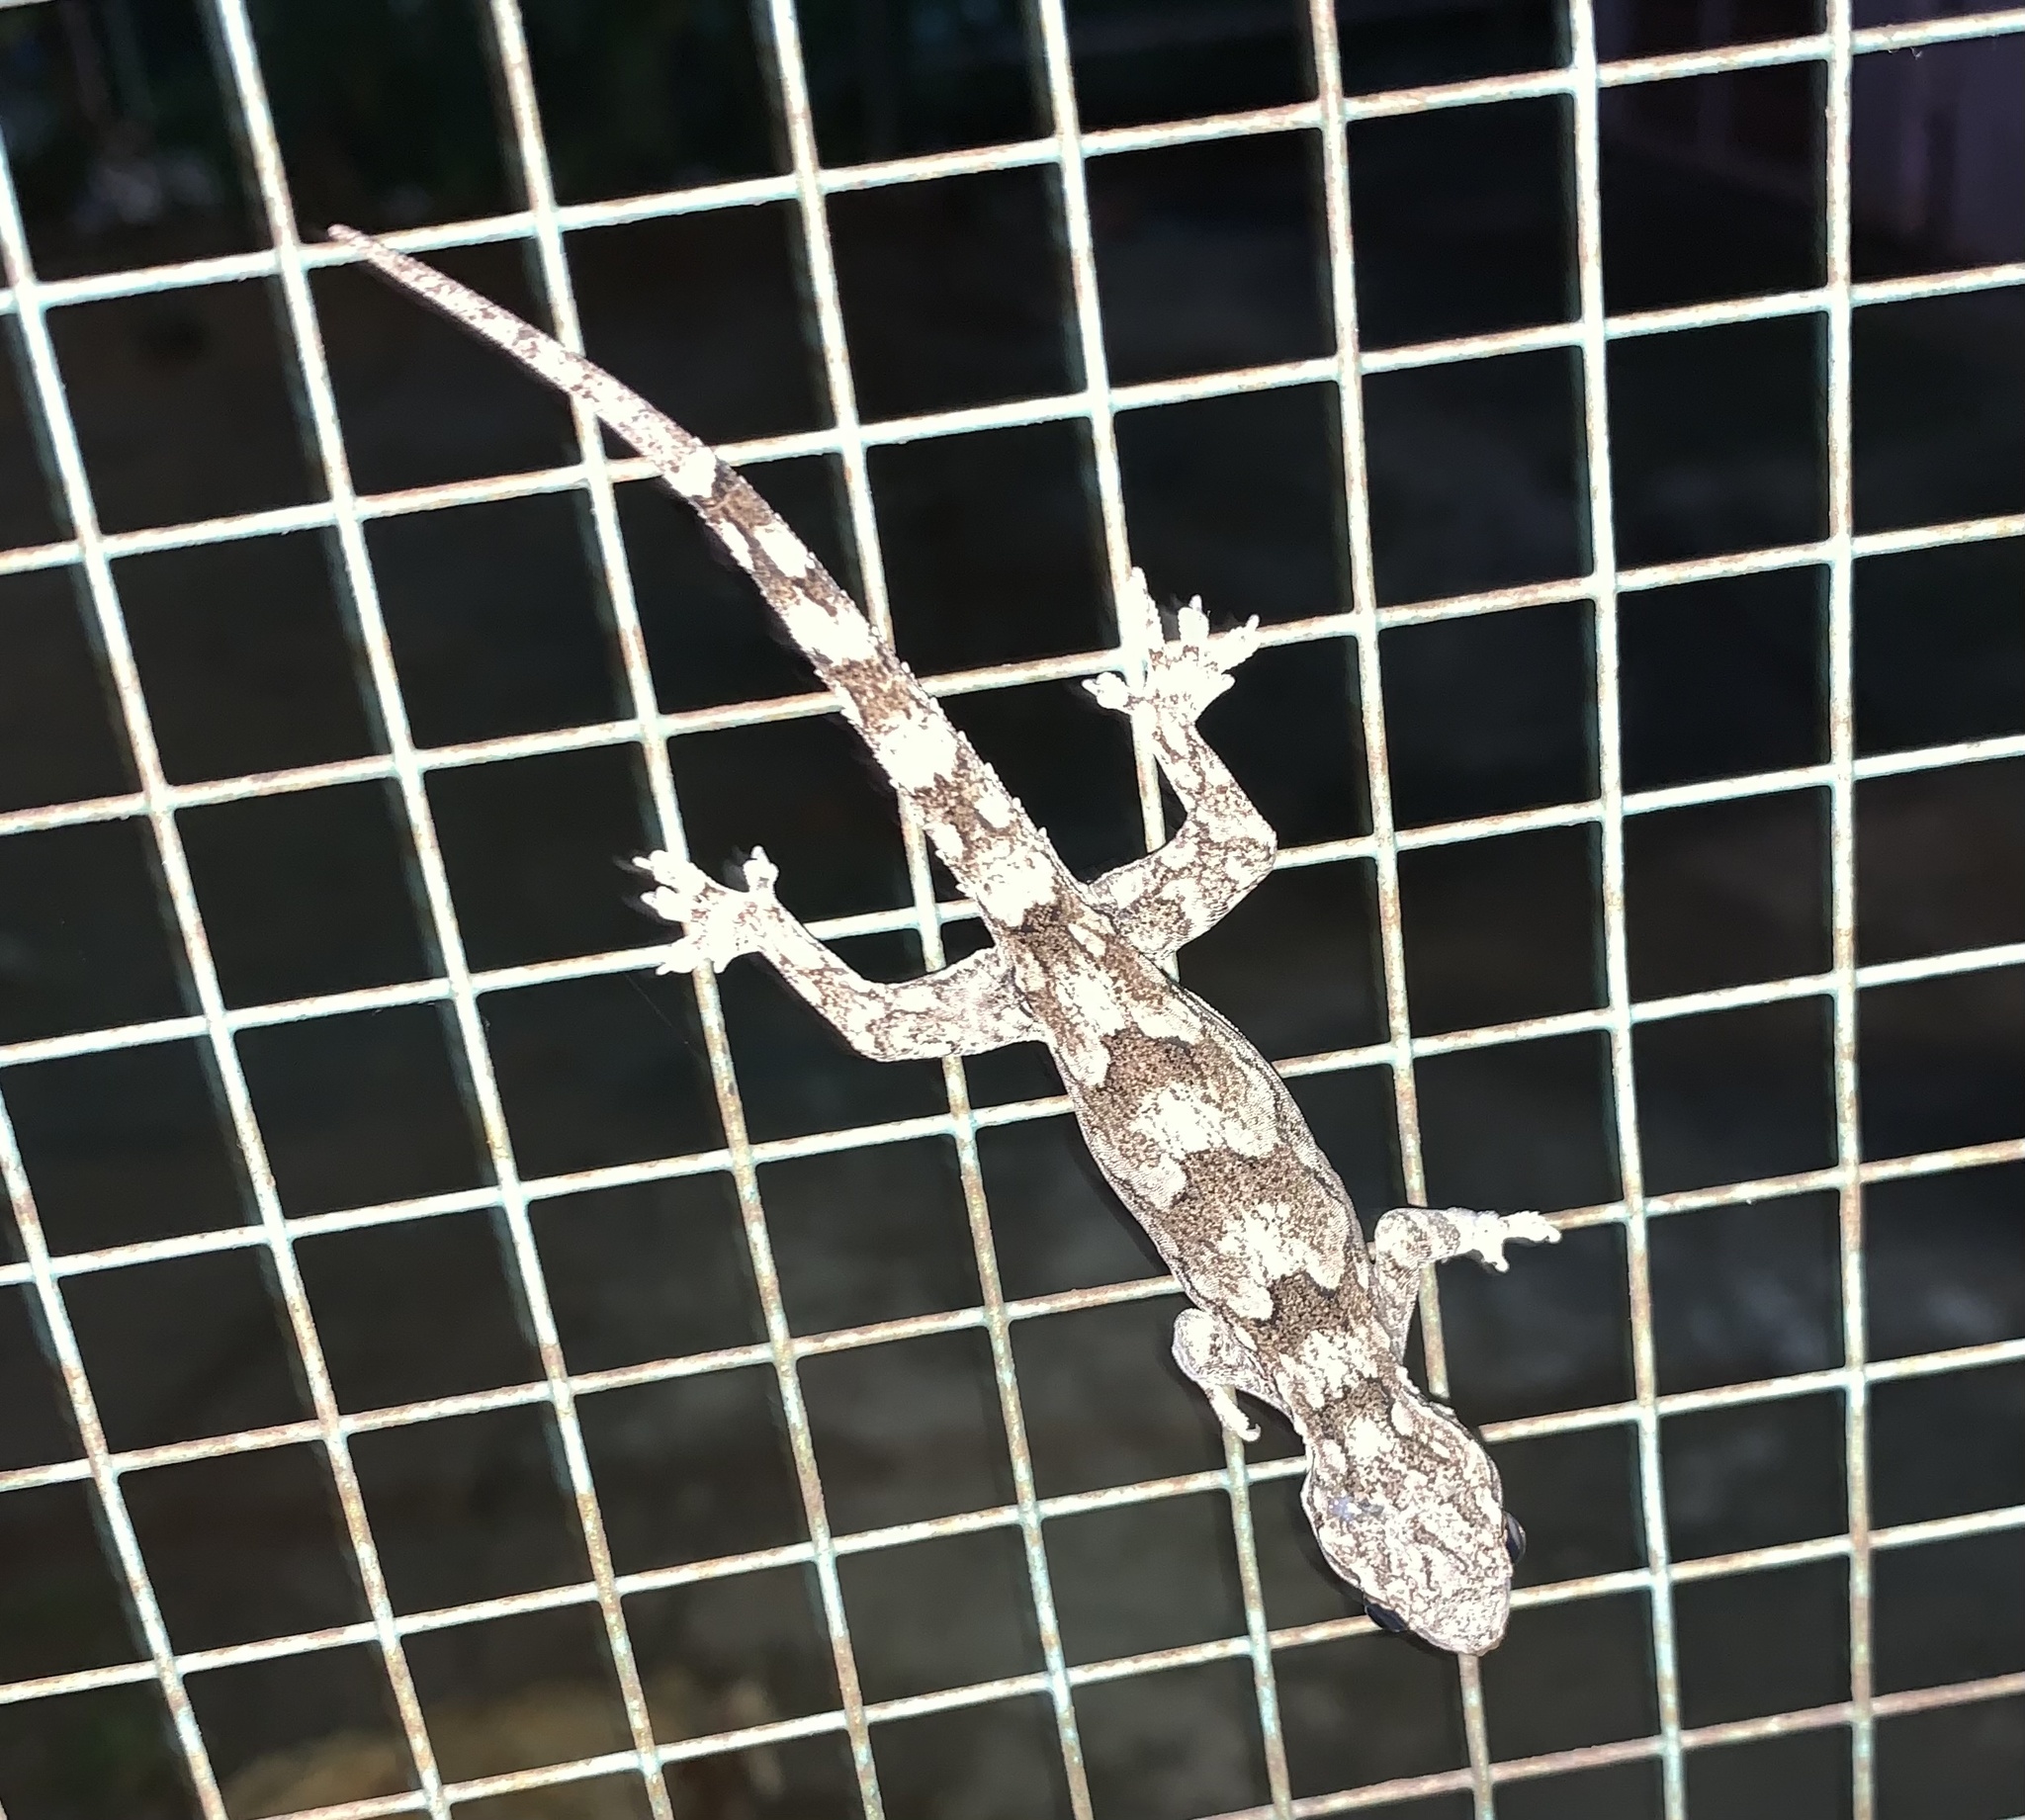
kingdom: Animalia
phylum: Chordata
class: Squamata
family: Gekkonidae
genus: Hemidactylus
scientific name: Hemidactylus leschenaultii
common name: Leschenault's leaf-toed gecko
